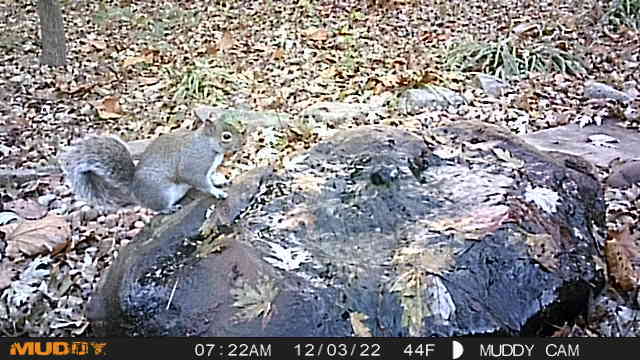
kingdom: Animalia
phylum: Chordata
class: Mammalia
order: Rodentia
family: Sciuridae
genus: Sciurus
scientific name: Sciurus carolinensis
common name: Eastern gray squirrel
